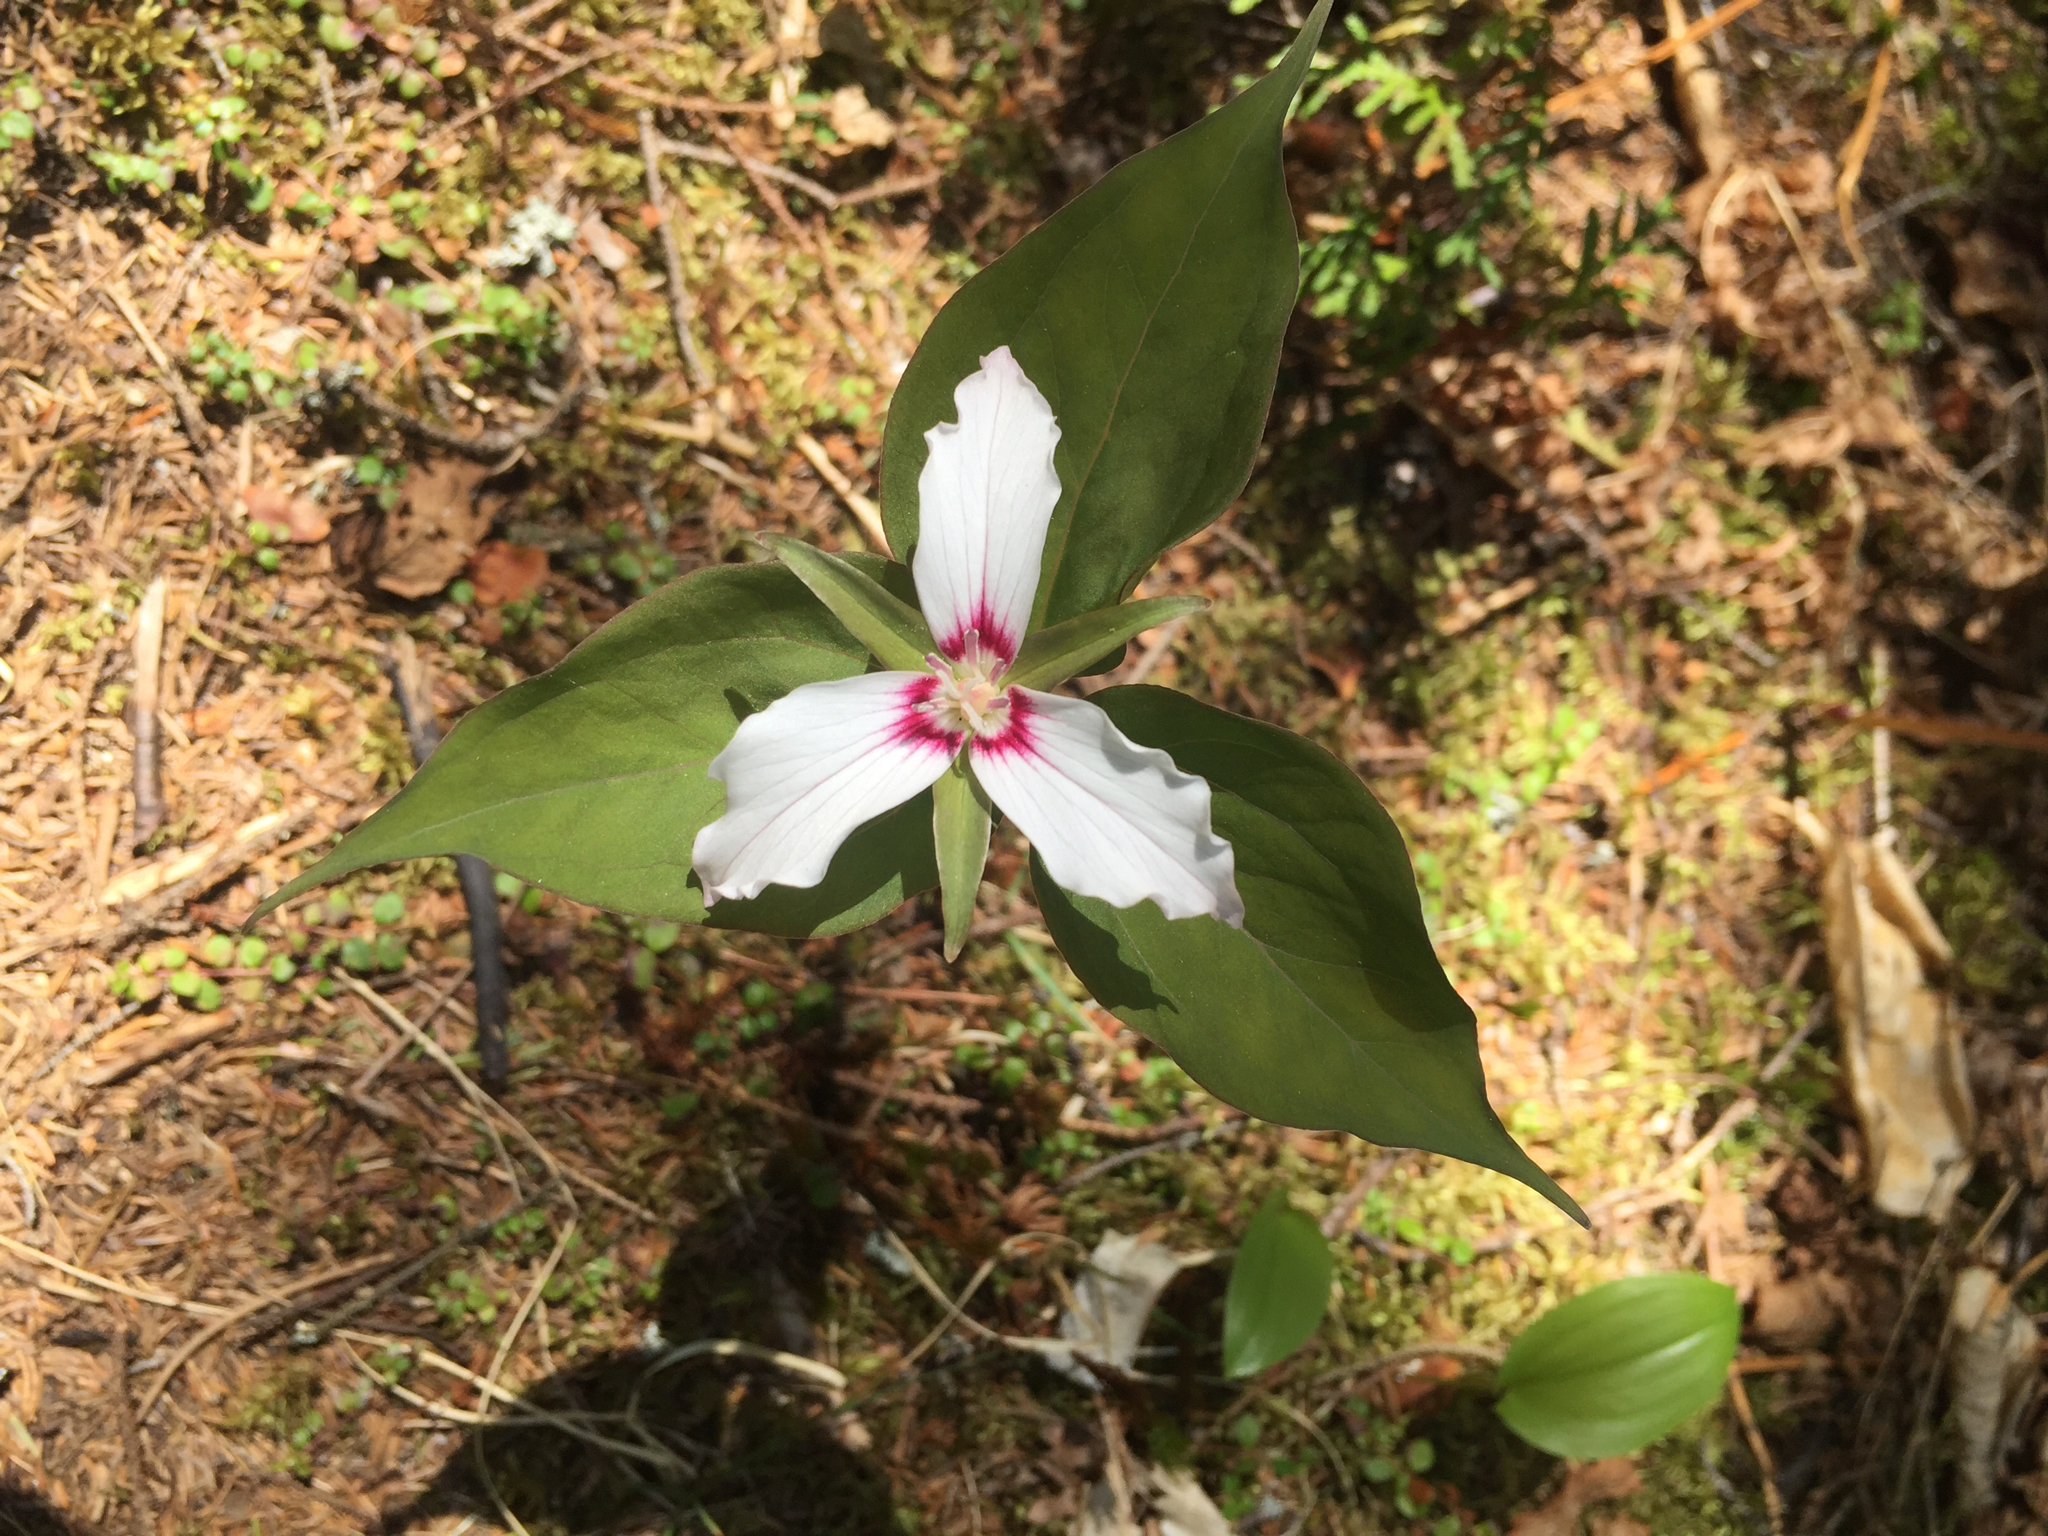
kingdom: Plantae
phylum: Tracheophyta
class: Liliopsida
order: Liliales
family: Melanthiaceae
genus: Trillium
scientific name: Trillium undulatum
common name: Paint trillium
